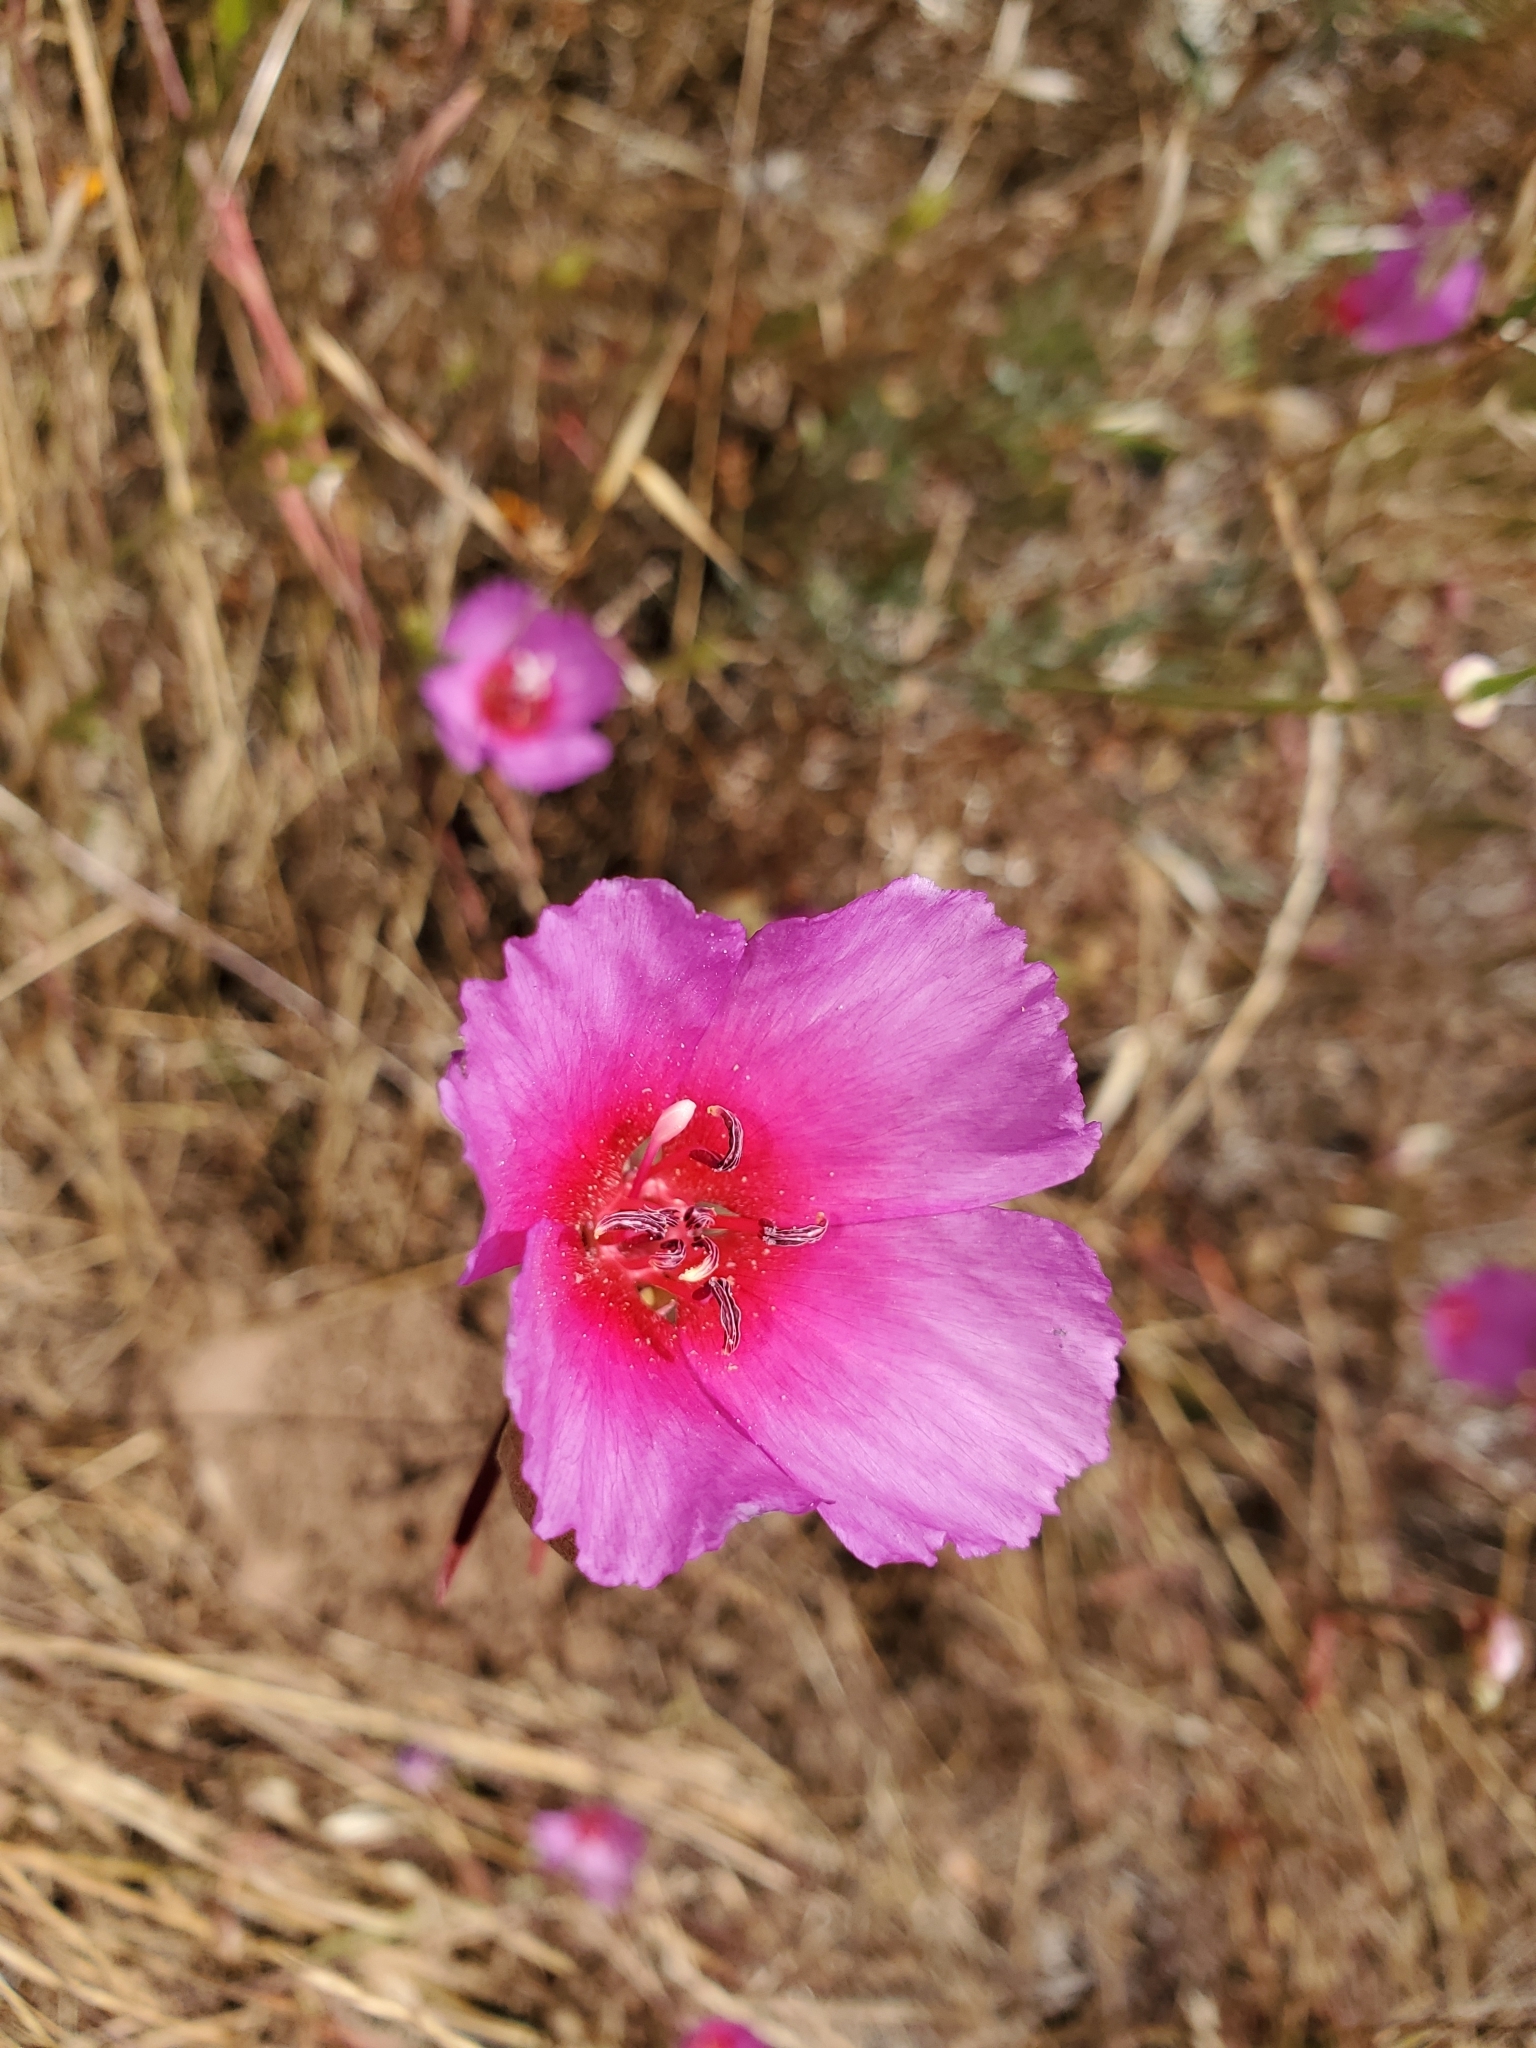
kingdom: Plantae
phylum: Tracheophyta
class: Magnoliopsida
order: Myrtales
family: Onagraceae
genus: Clarkia
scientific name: Clarkia rubicunda
